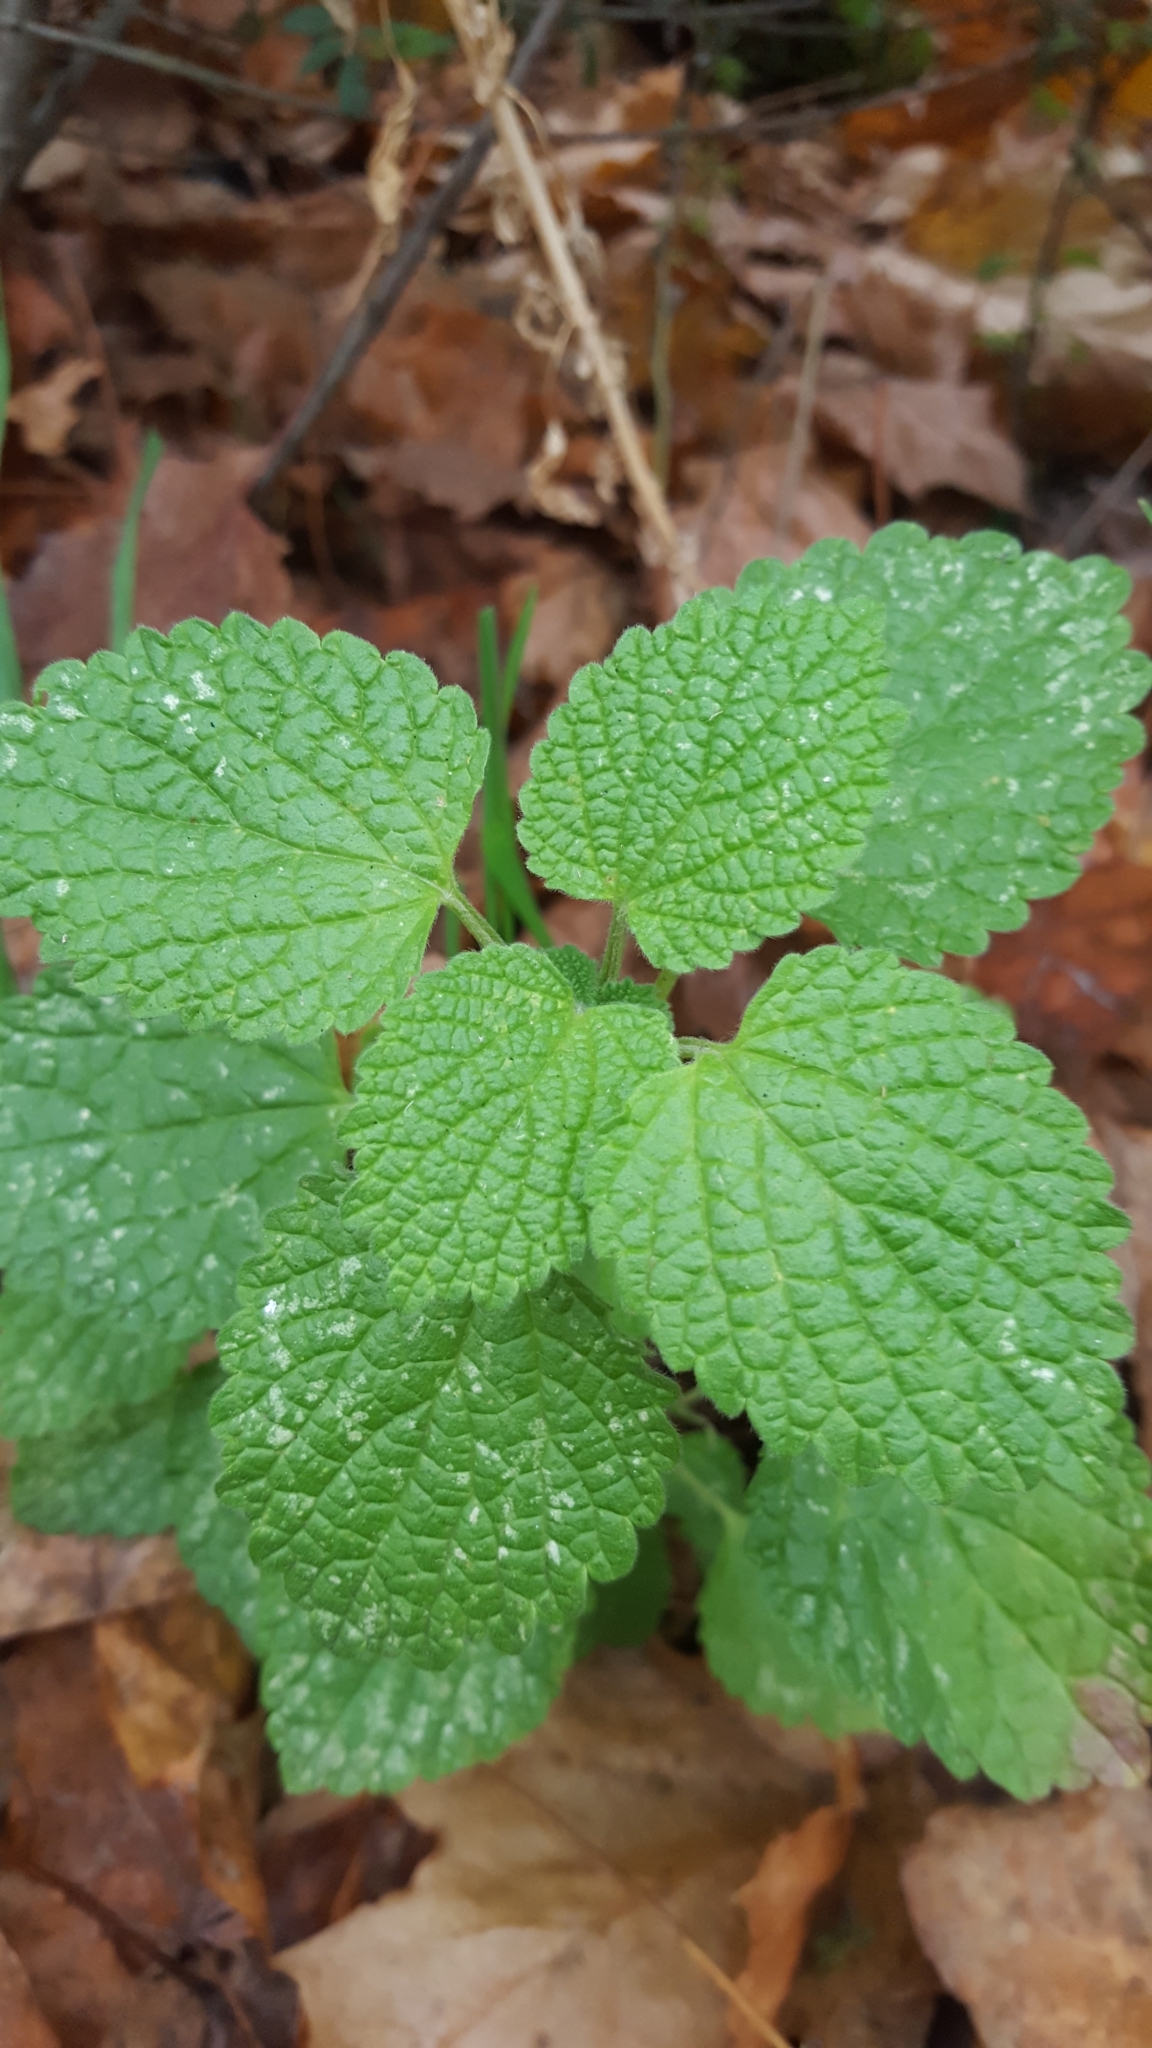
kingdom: Plantae
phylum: Tracheophyta
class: Magnoliopsida
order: Lamiales
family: Lamiaceae
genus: Ballota
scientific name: Ballota nigra
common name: Black horehound
